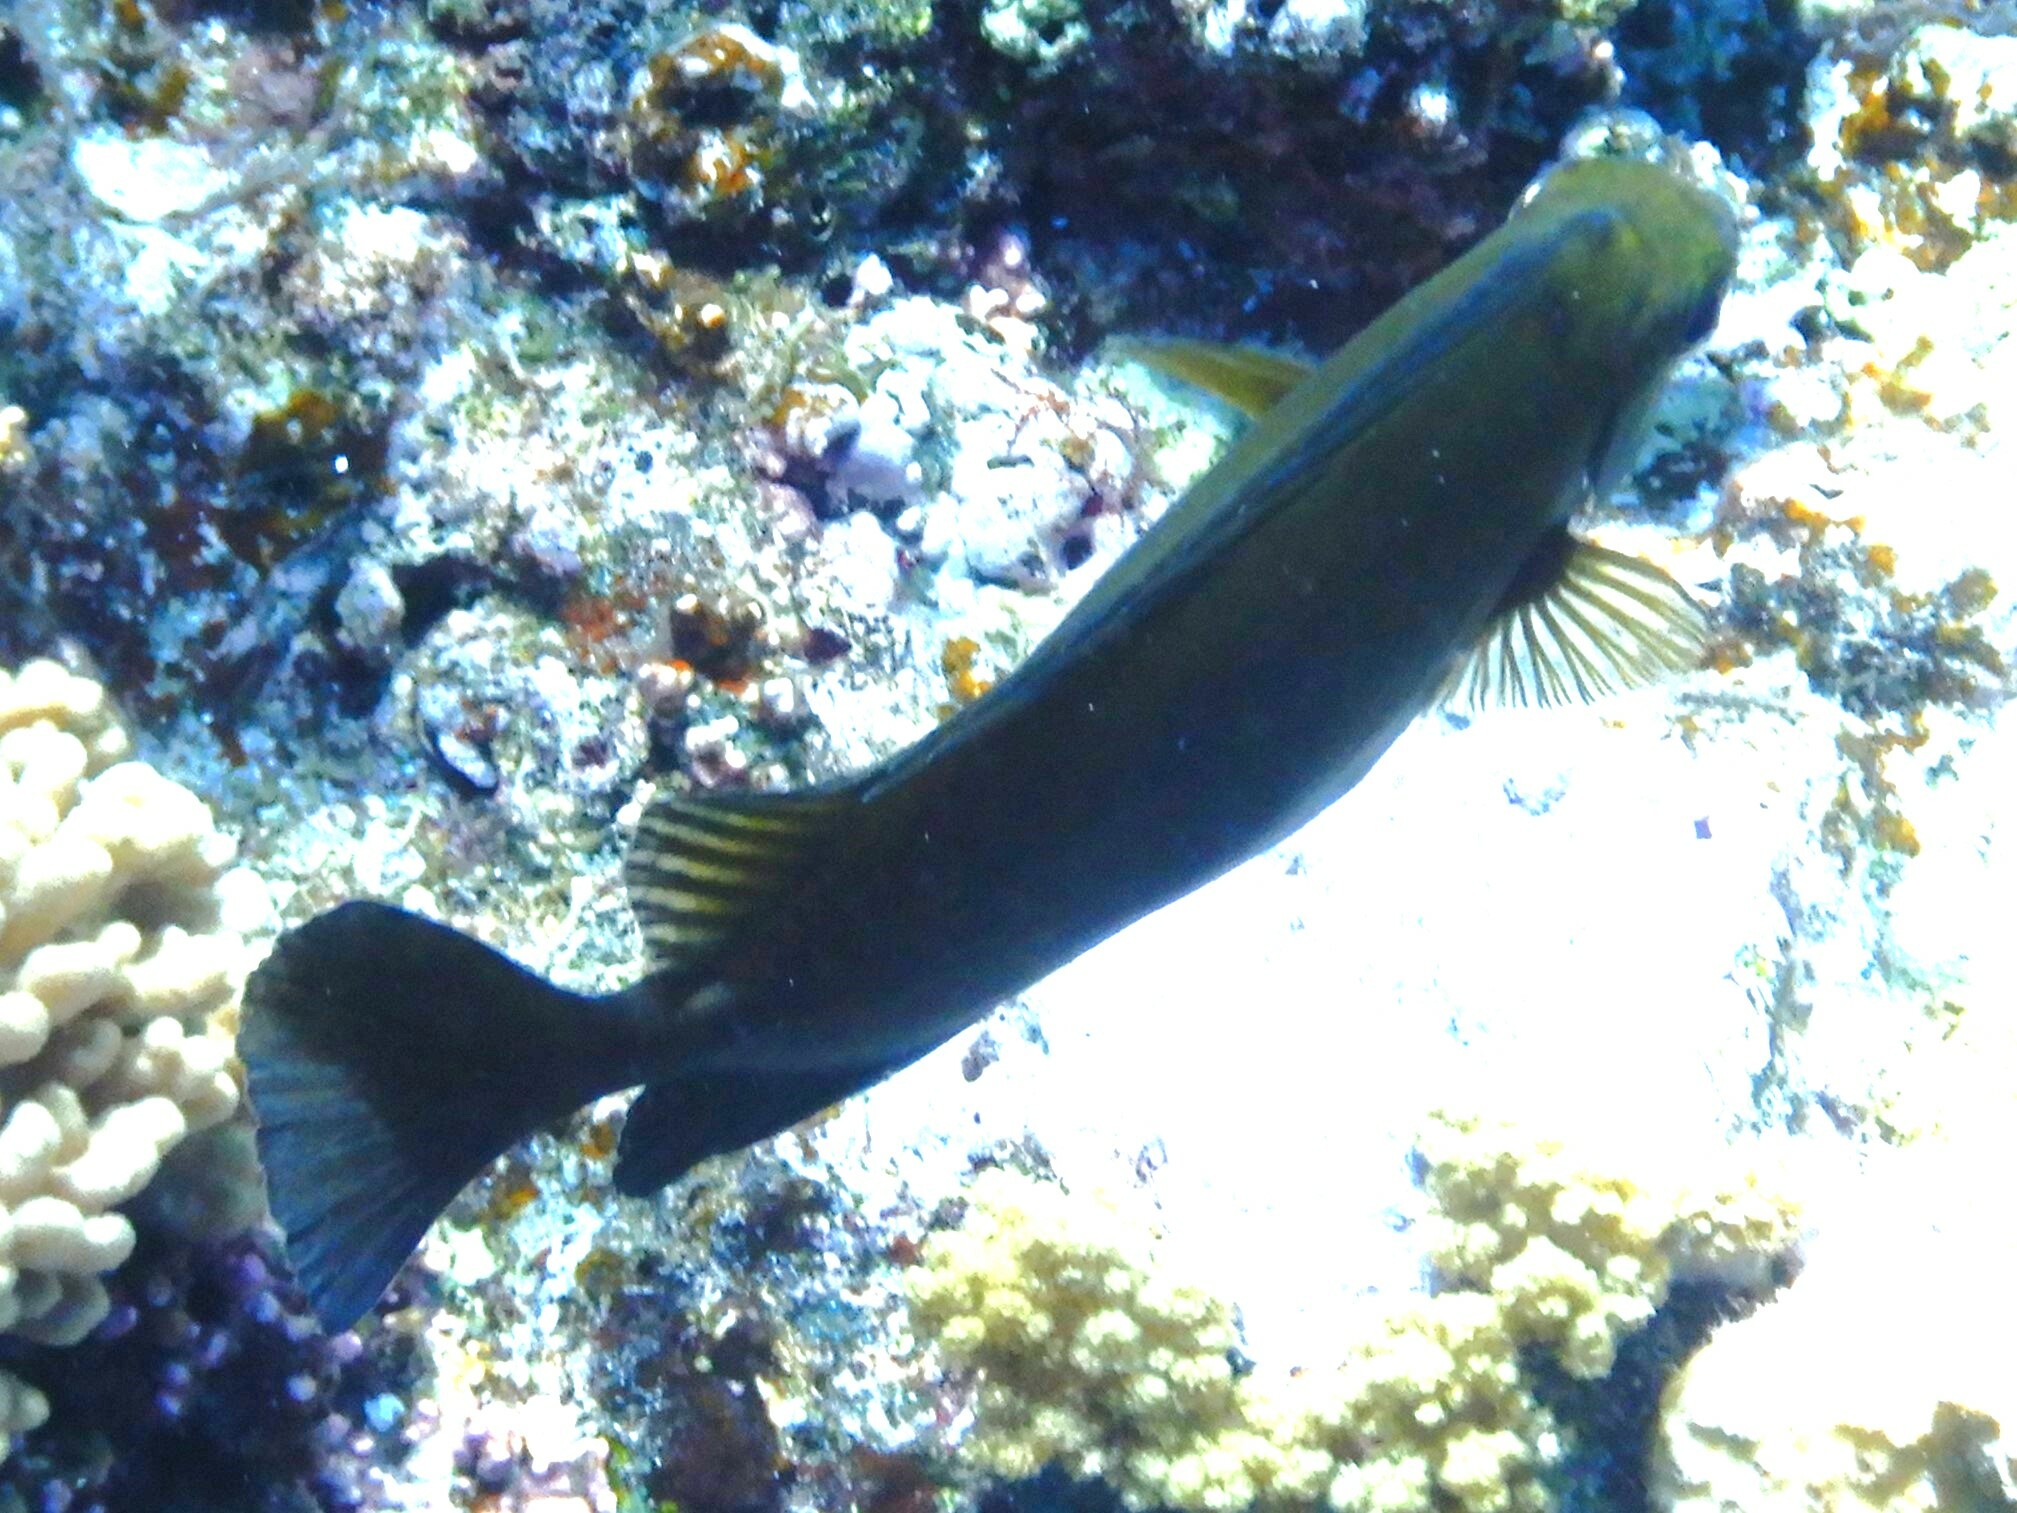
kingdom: Animalia
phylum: Chordata
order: Perciformes
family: Siganidae
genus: Siganus
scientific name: Siganus luridus
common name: Dusky spinefoot
